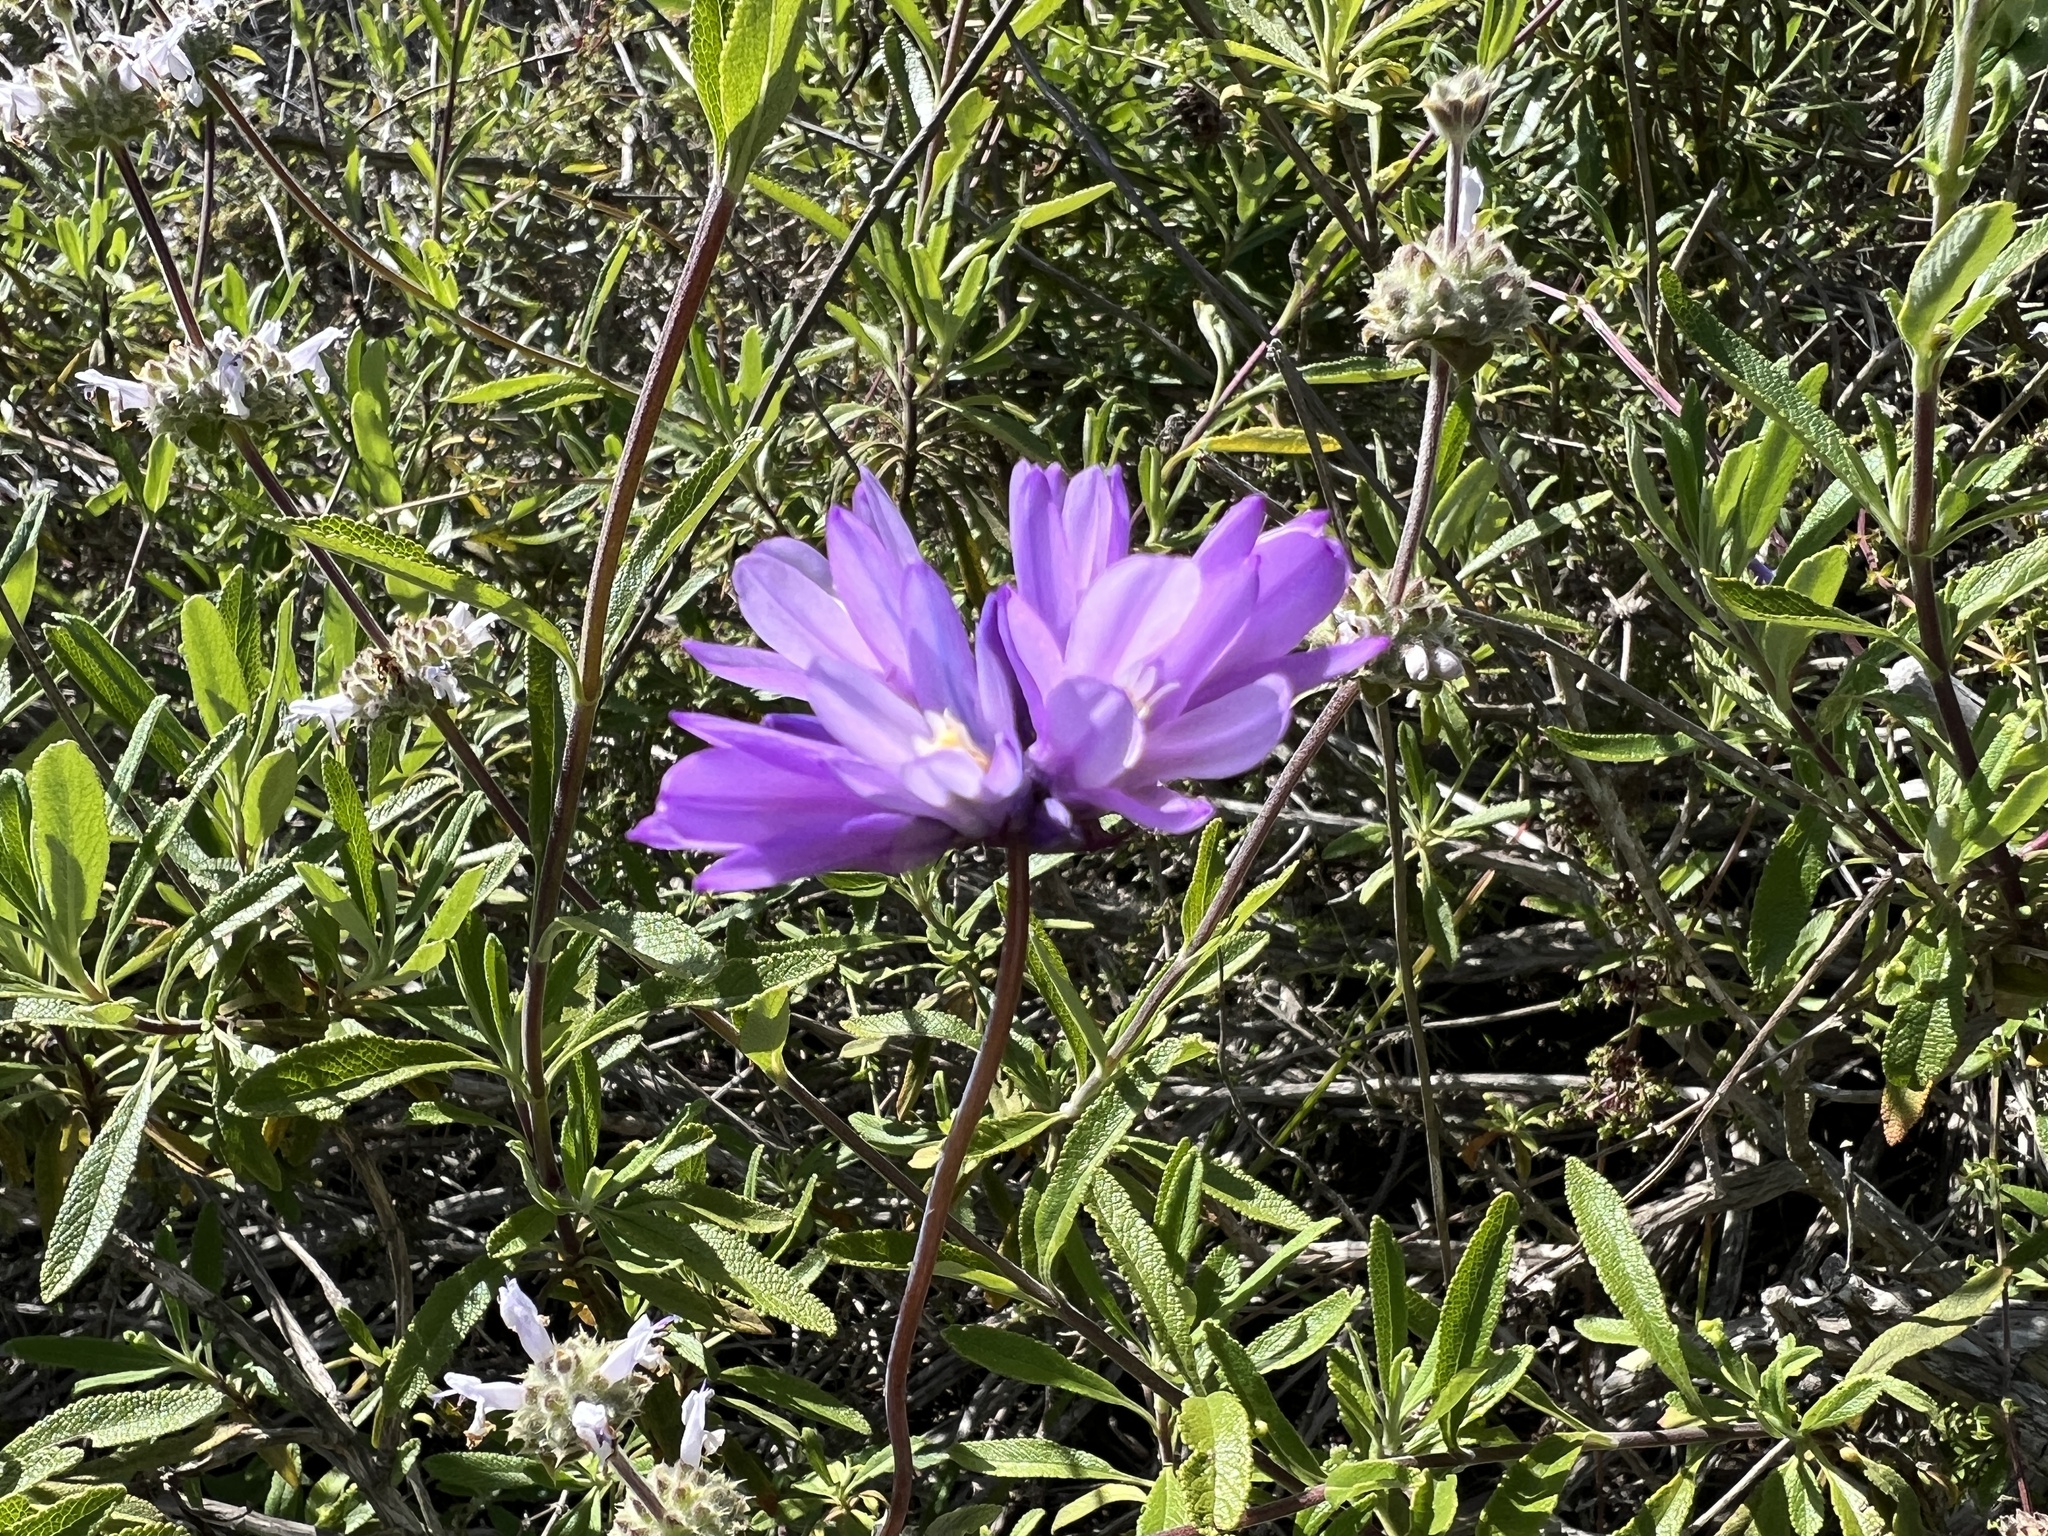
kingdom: Plantae
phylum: Tracheophyta
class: Liliopsida
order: Asparagales
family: Asparagaceae
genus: Dipterostemon
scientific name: Dipterostemon capitatus
